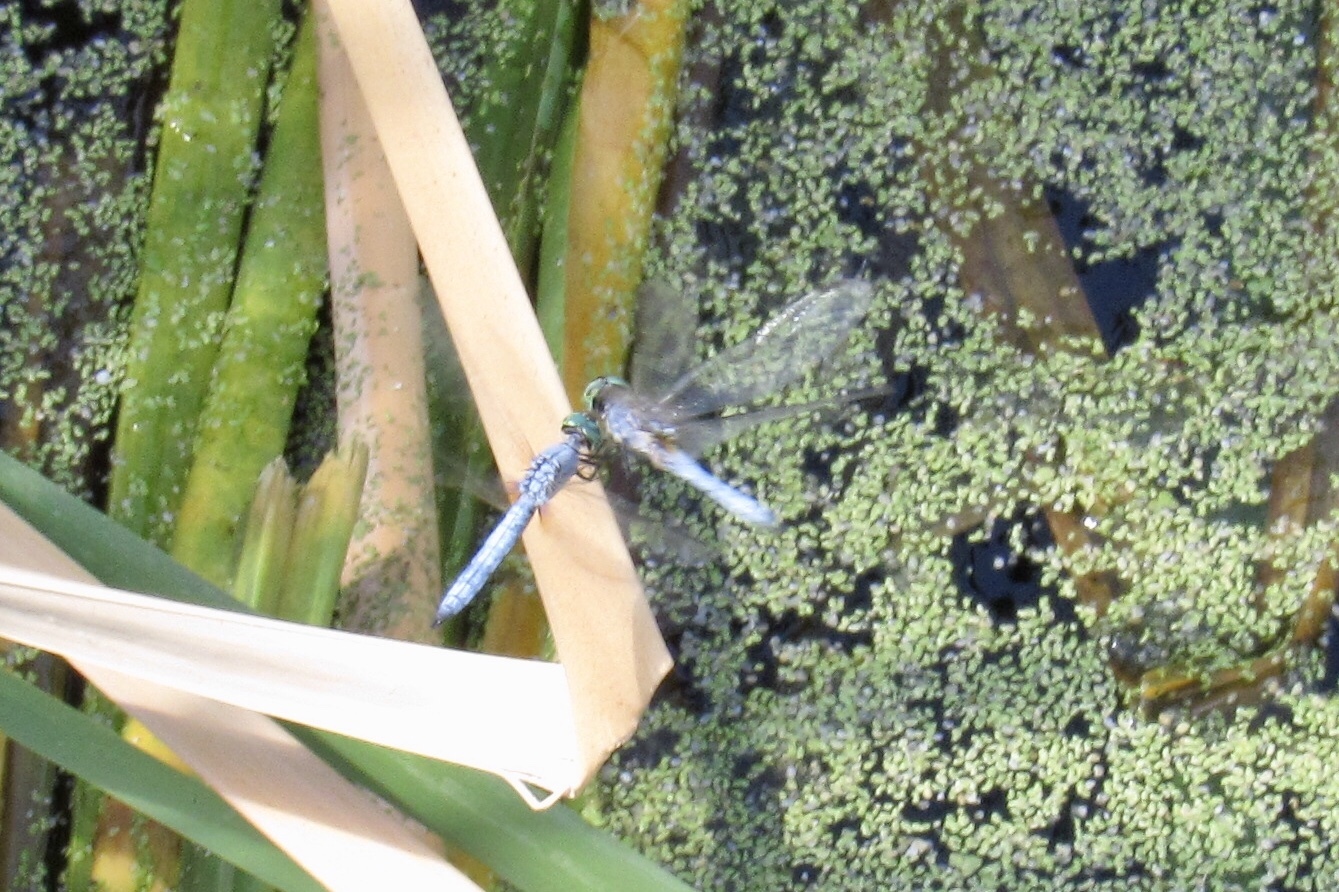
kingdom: Animalia
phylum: Arthropoda
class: Insecta
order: Odonata
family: Libellulidae
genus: Pachydiplax
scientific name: Pachydiplax longipennis
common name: Blue dasher
